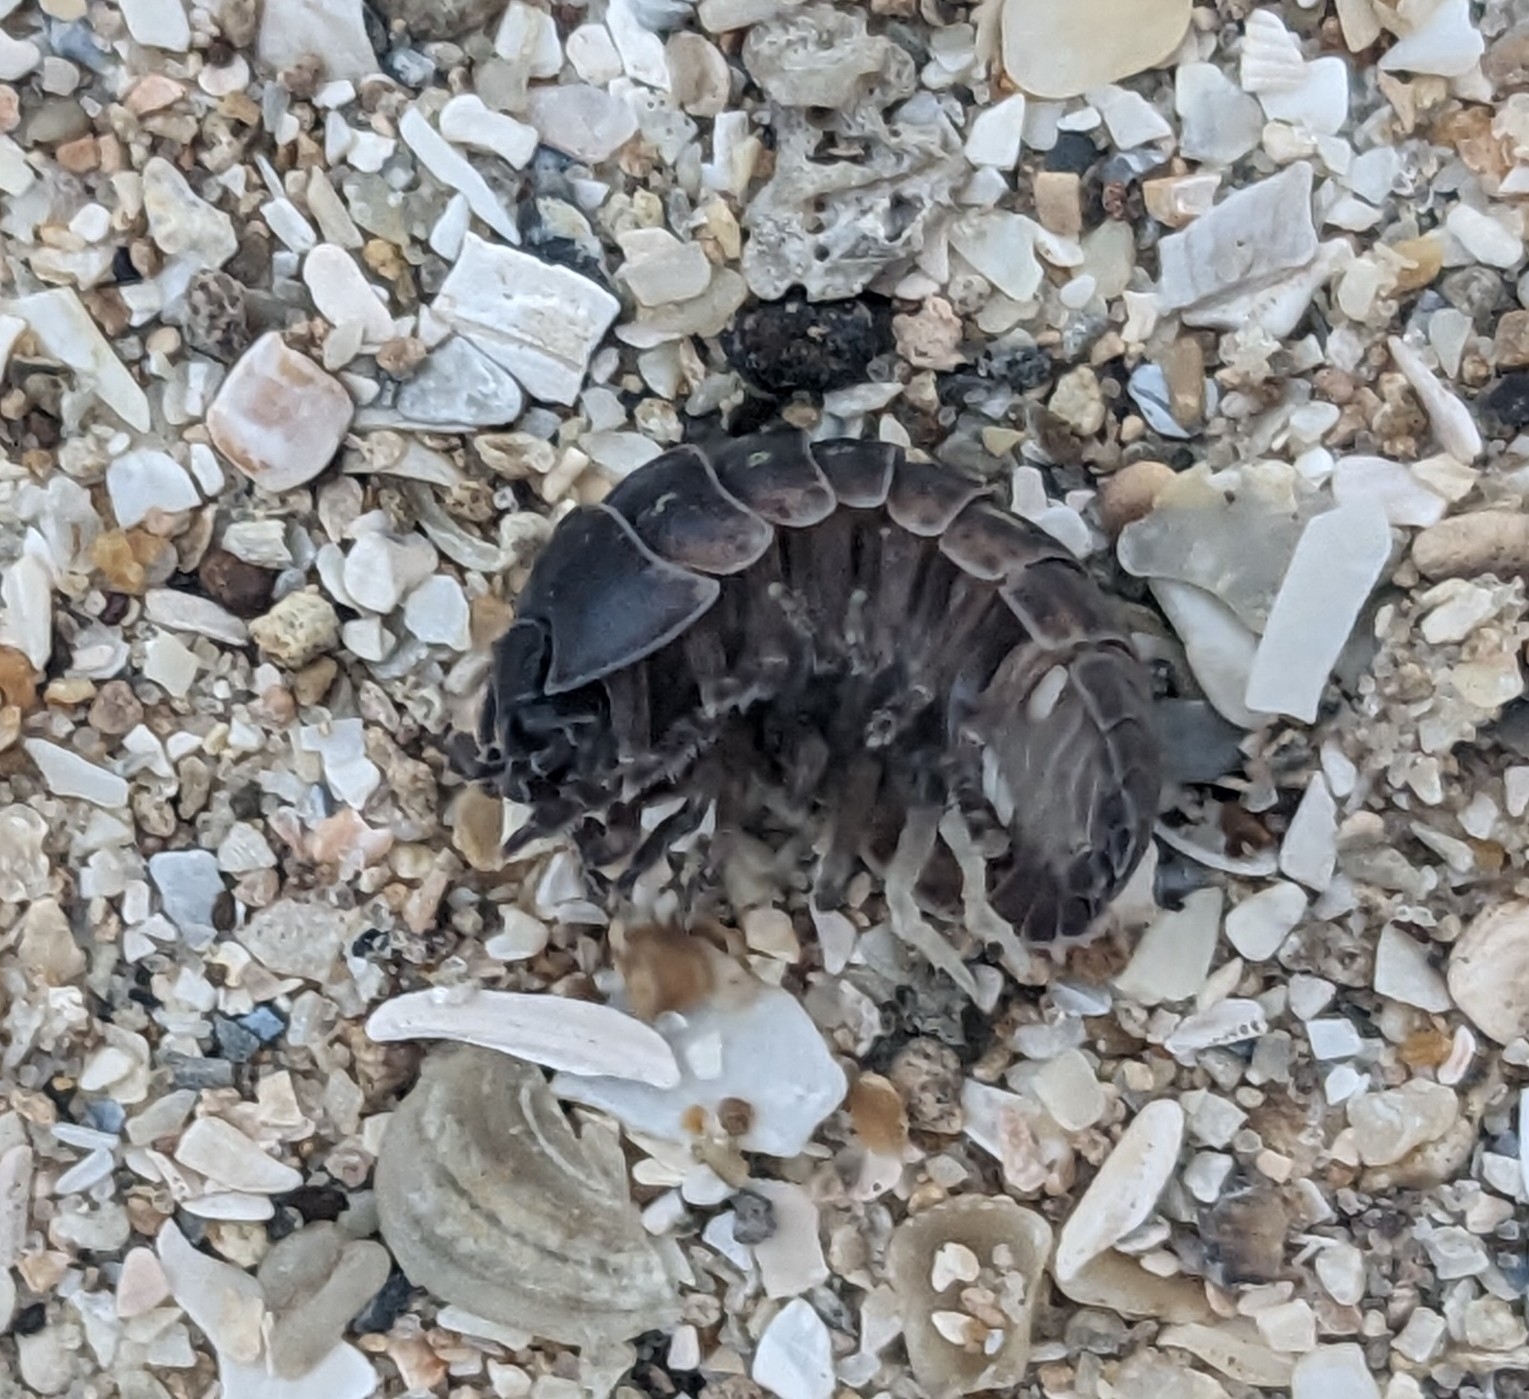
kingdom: Animalia
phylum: Arthropoda
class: Malacostraca
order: Isopoda
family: Armadillidiidae
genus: Armadillidium
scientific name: Armadillidium vulgare
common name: Common pill woodlouse
